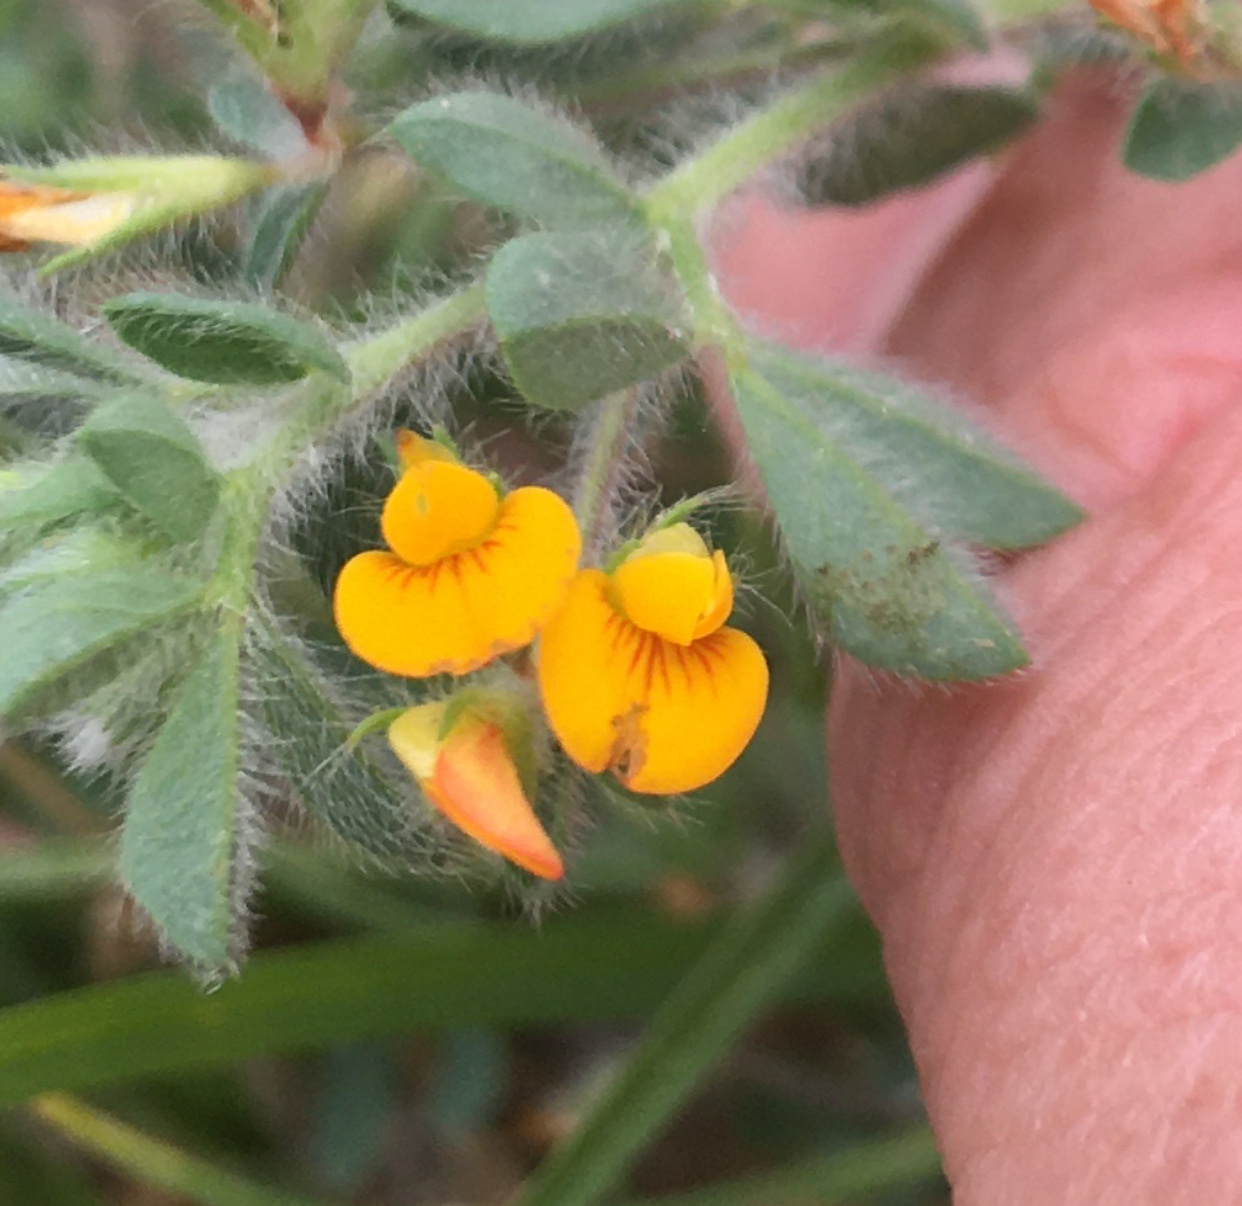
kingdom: Plantae
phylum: Tracheophyta
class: Magnoliopsida
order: Fabales
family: Fabaceae
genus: Lotus
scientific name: Lotus subbiflorus
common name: Hairy bird's-foot trefoil
